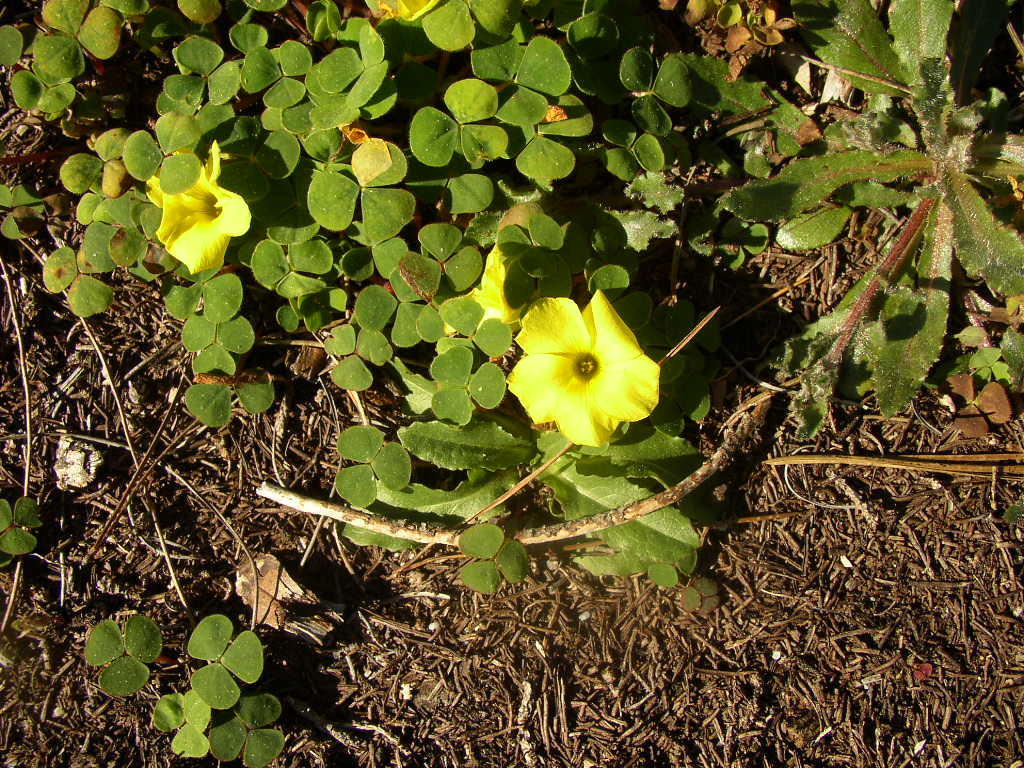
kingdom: Plantae
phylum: Tracheophyta
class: Magnoliopsida
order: Oxalidales
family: Oxalidaceae
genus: Oxalis
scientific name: Oxalis luteola
